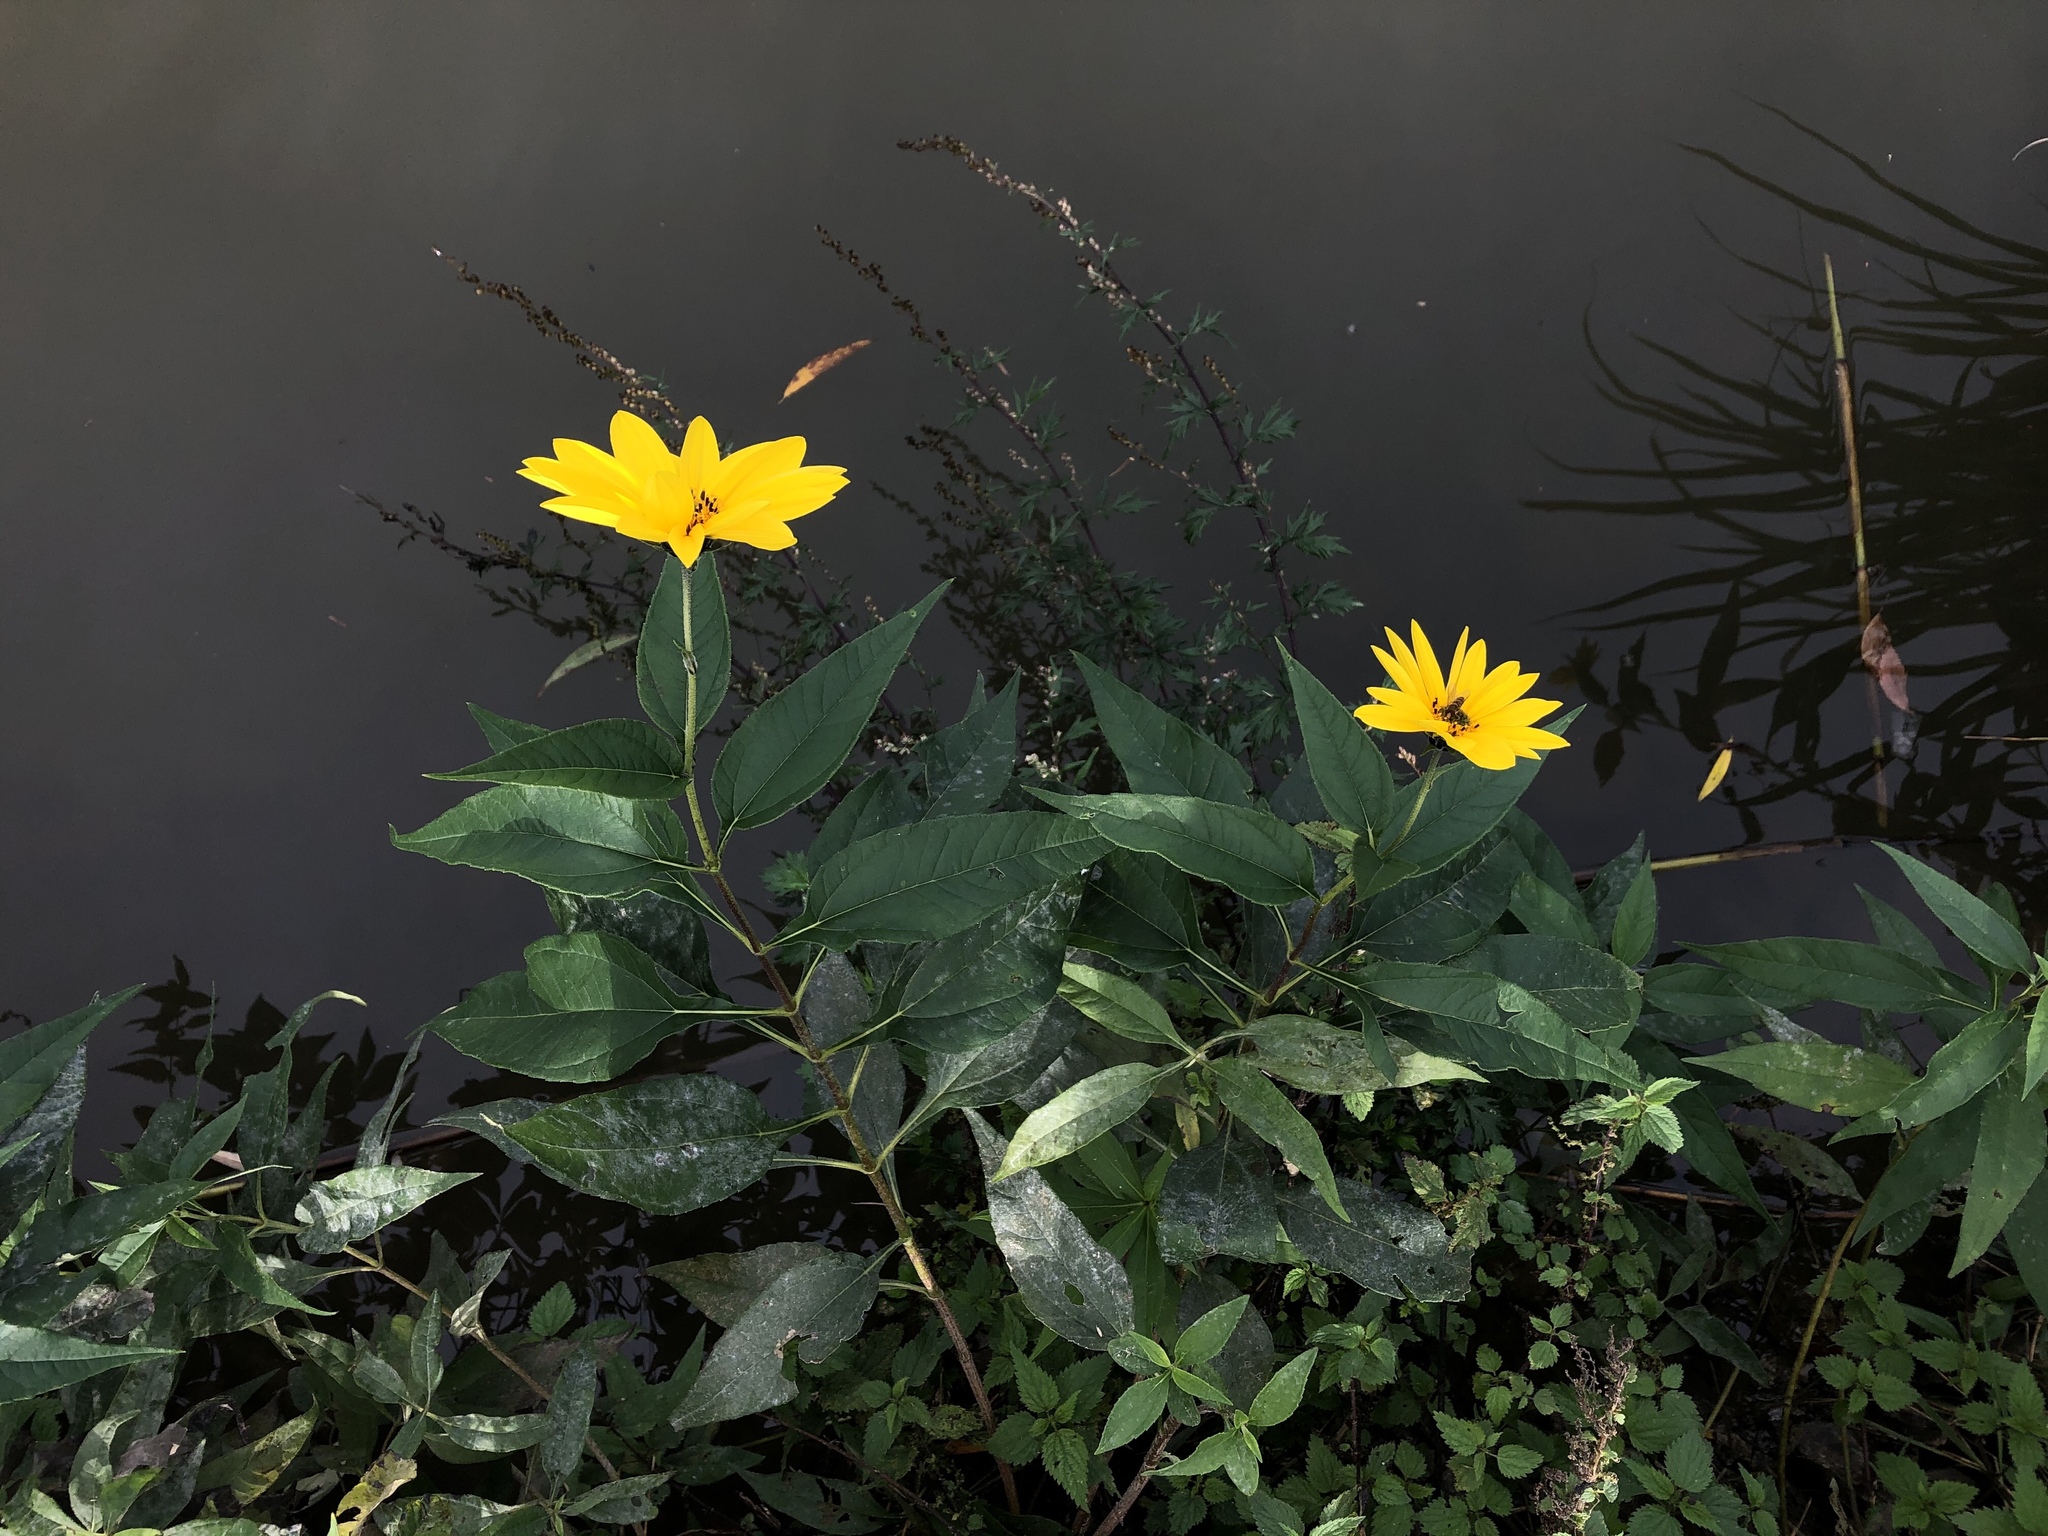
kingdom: Plantae
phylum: Tracheophyta
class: Magnoliopsida
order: Asterales
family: Asteraceae
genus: Helianthus
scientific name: Helianthus tuberosus
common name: Jerusalem artichoke
